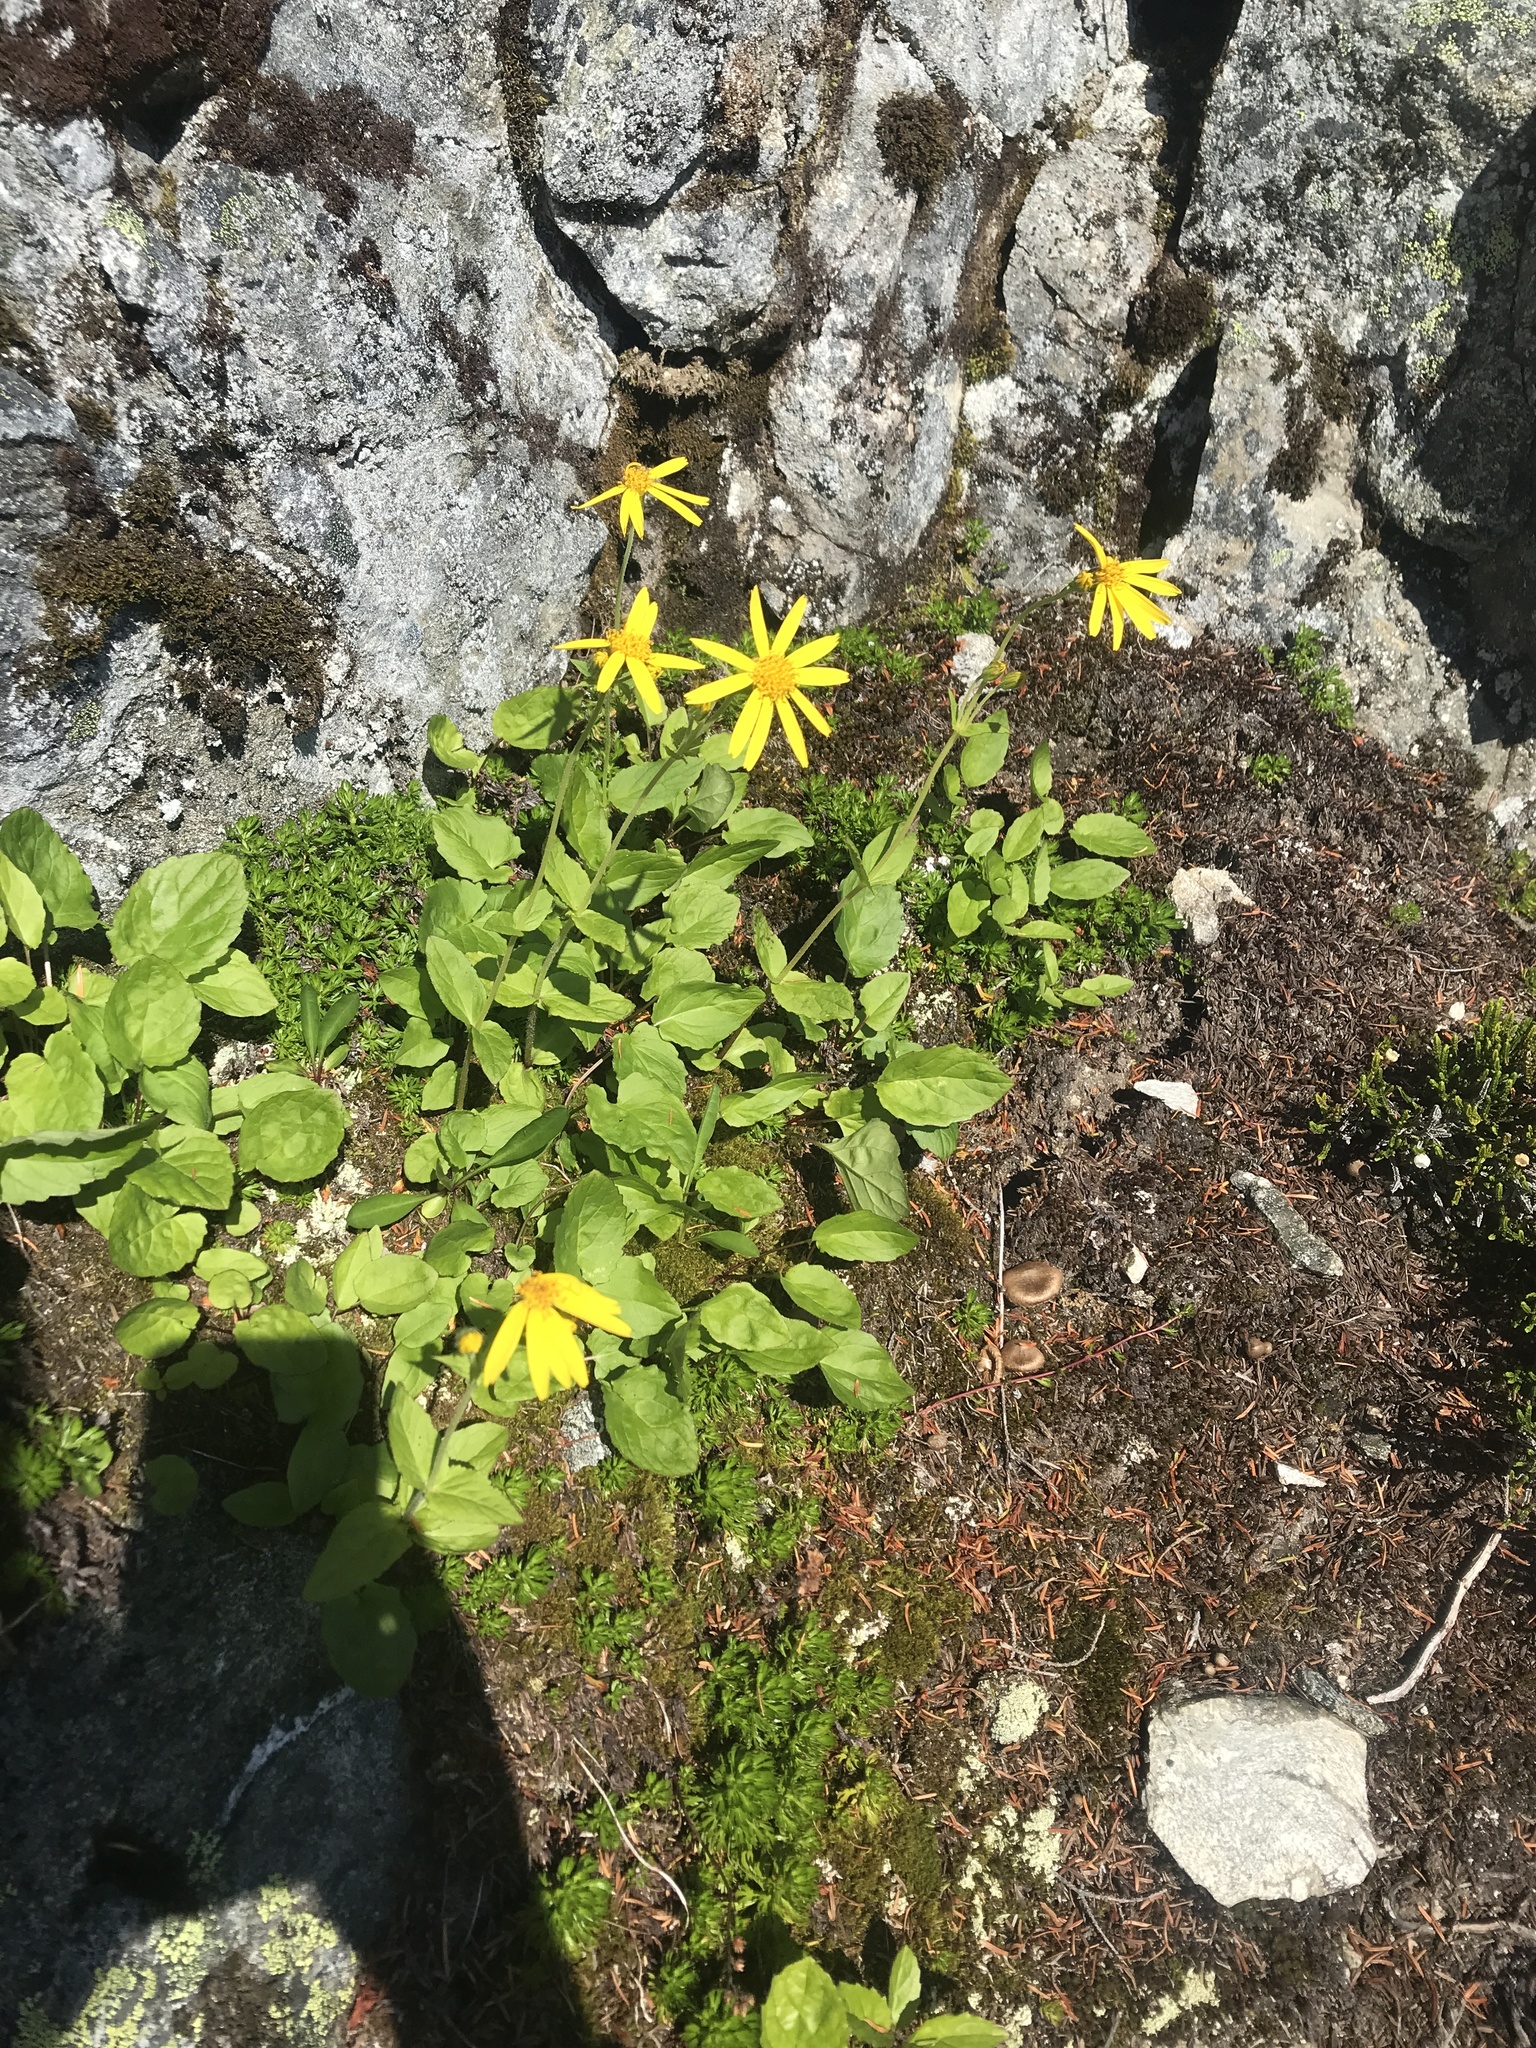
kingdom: Plantae
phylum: Tracheophyta
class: Magnoliopsida
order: Asterales
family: Asteraceae
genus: Arnica
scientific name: Arnica latifolia
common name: Arnica
